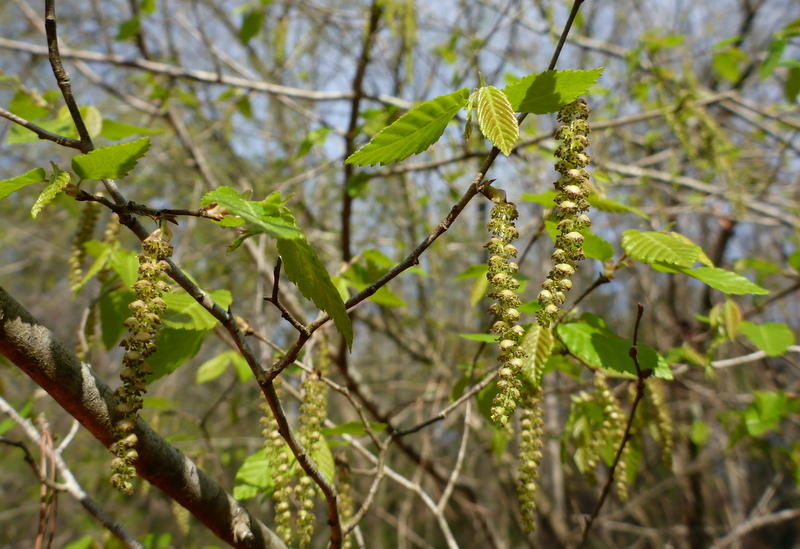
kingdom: Plantae
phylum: Tracheophyta
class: Magnoliopsida
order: Fagales
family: Betulaceae
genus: Carpinus
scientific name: Carpinus caroliniana
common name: American hornbeam
